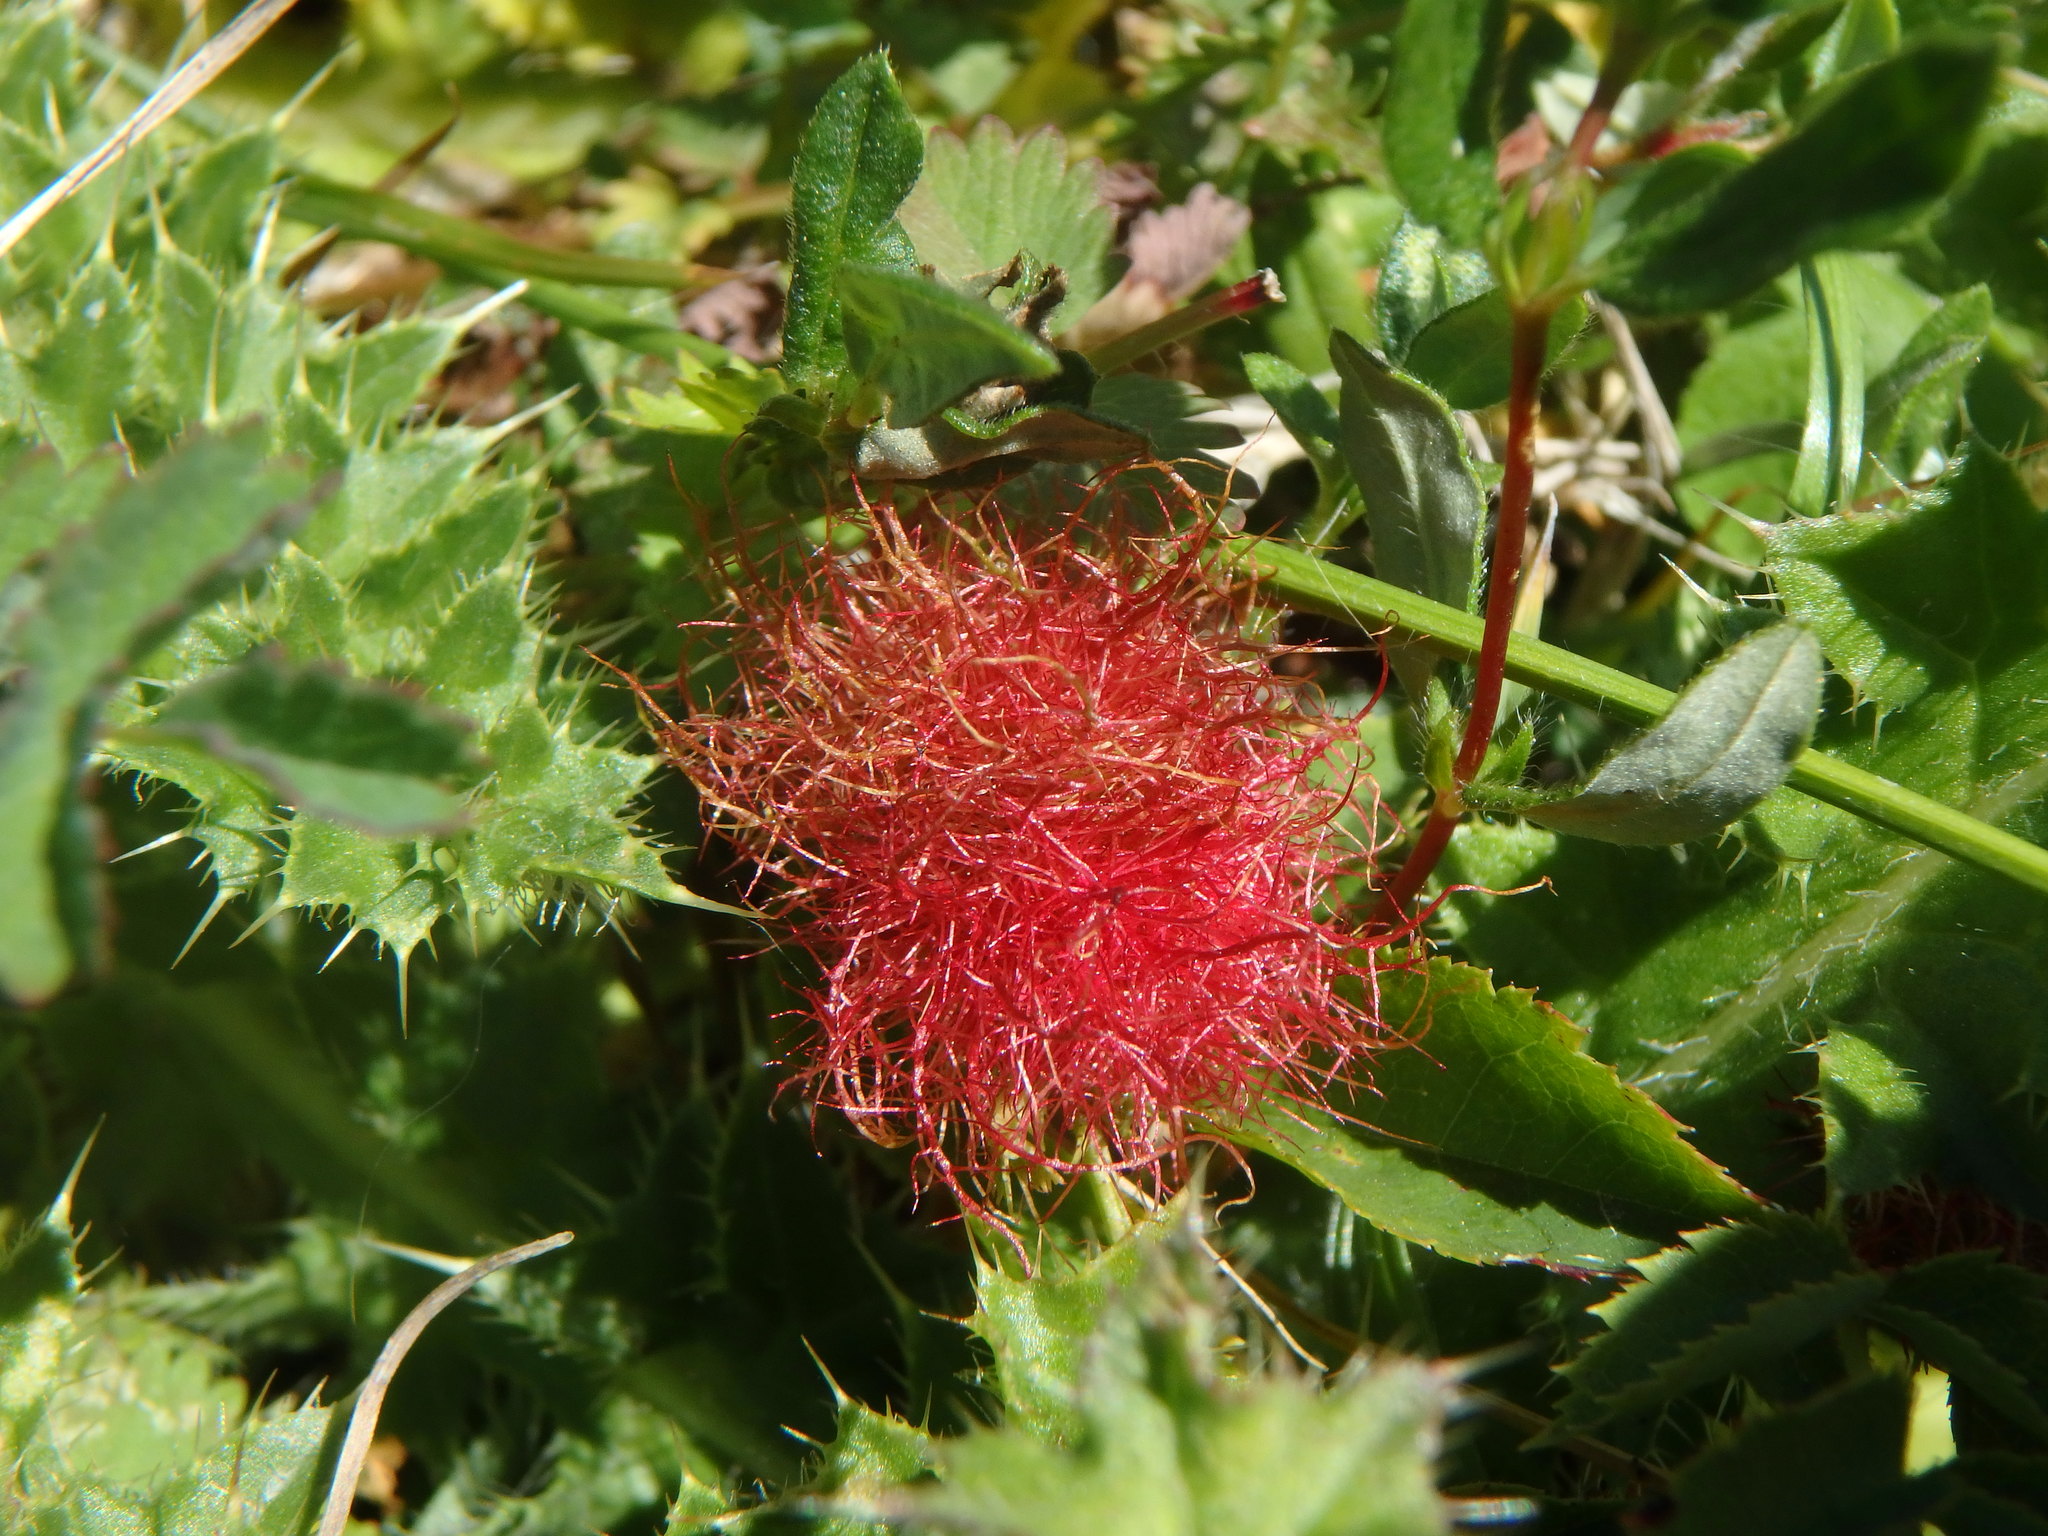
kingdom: Animalia
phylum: Arthropoda
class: Insecta
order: Hymenoptera
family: Cynipidae
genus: Diplolepis
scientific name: Diplolepis rosae
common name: Bedeguar gall
